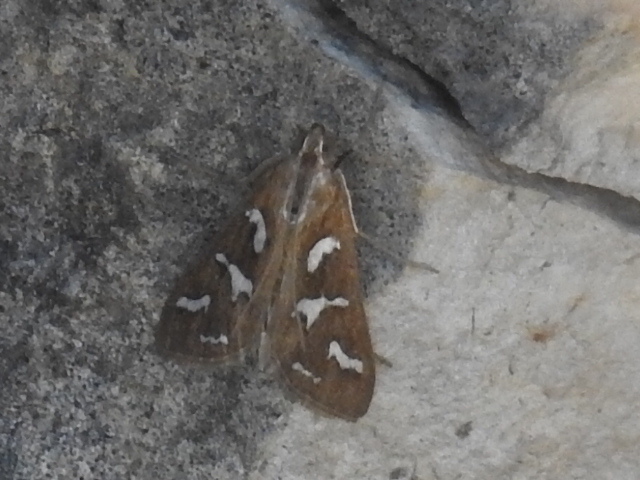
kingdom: Animalia
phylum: Arthropoda
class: Insecta
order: Lepidoptera
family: Crambidae
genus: Diastictis
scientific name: Diastictis fracturalis
